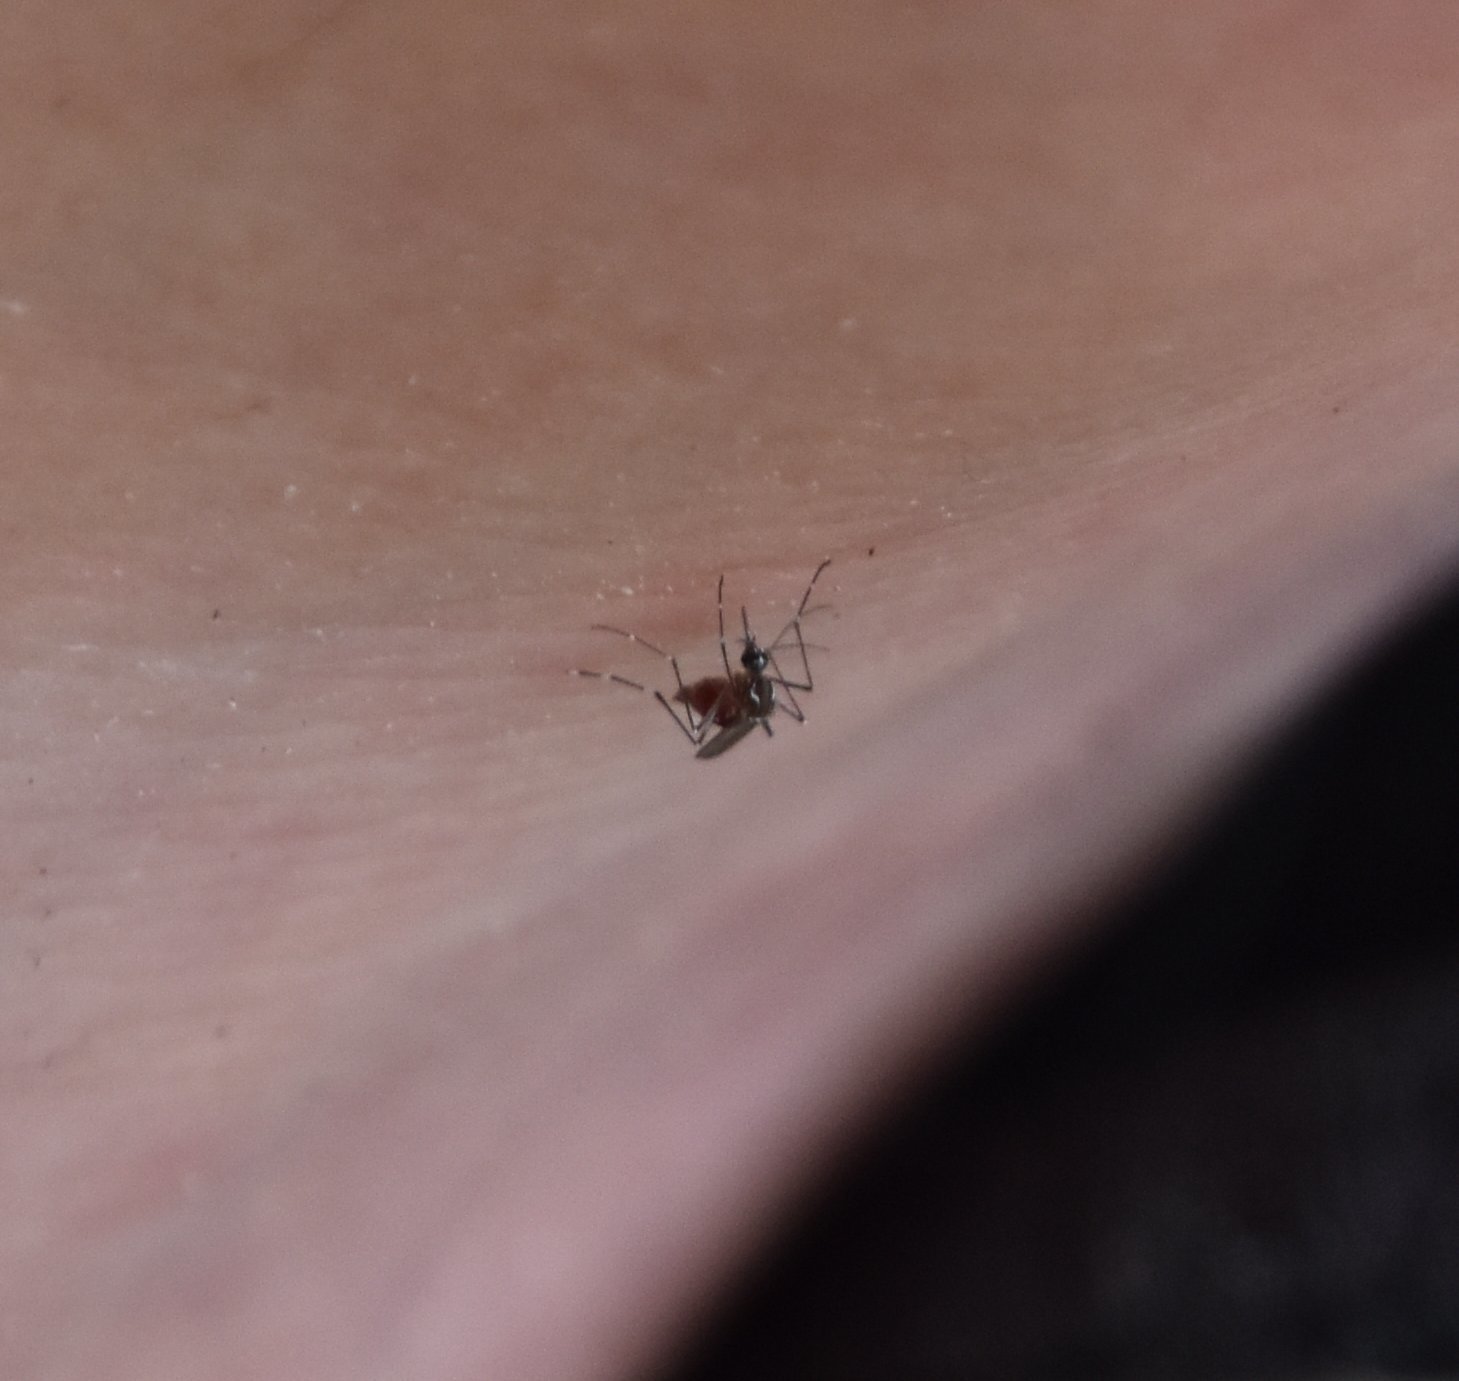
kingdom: Animalia
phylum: Arthropoda
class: Insecta
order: Diptera
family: Culicidae
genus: Aedes
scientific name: Aedes aegypti
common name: Yellow fever mosquito
